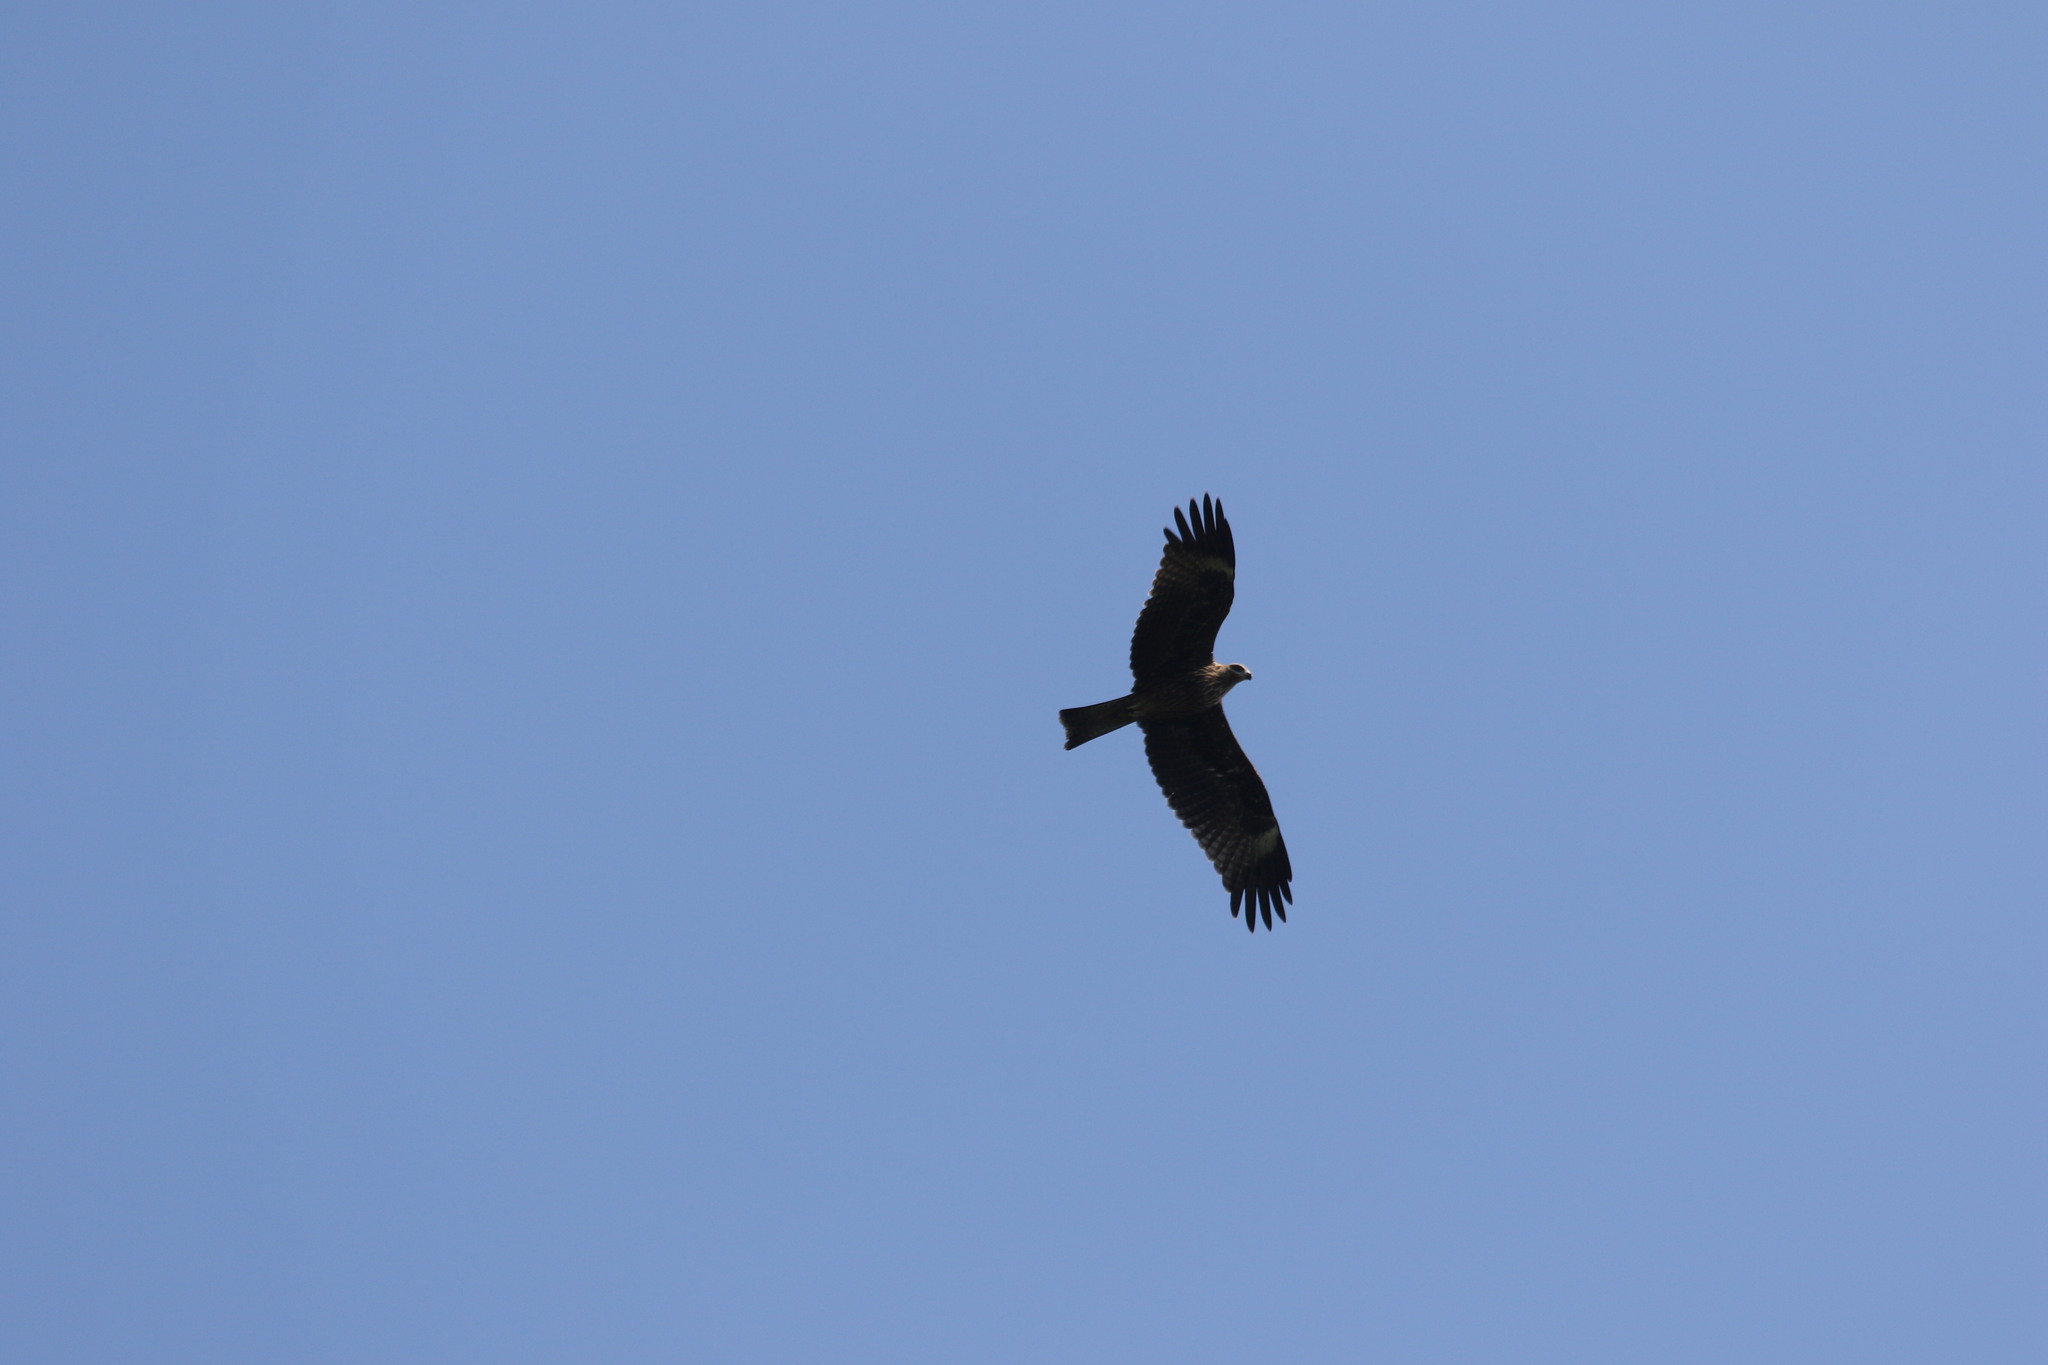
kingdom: Animalia
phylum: Chordata
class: Aves
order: Accipitriformes
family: Accipitridae
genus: Milvus
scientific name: Milvus migrans
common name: Black kite
